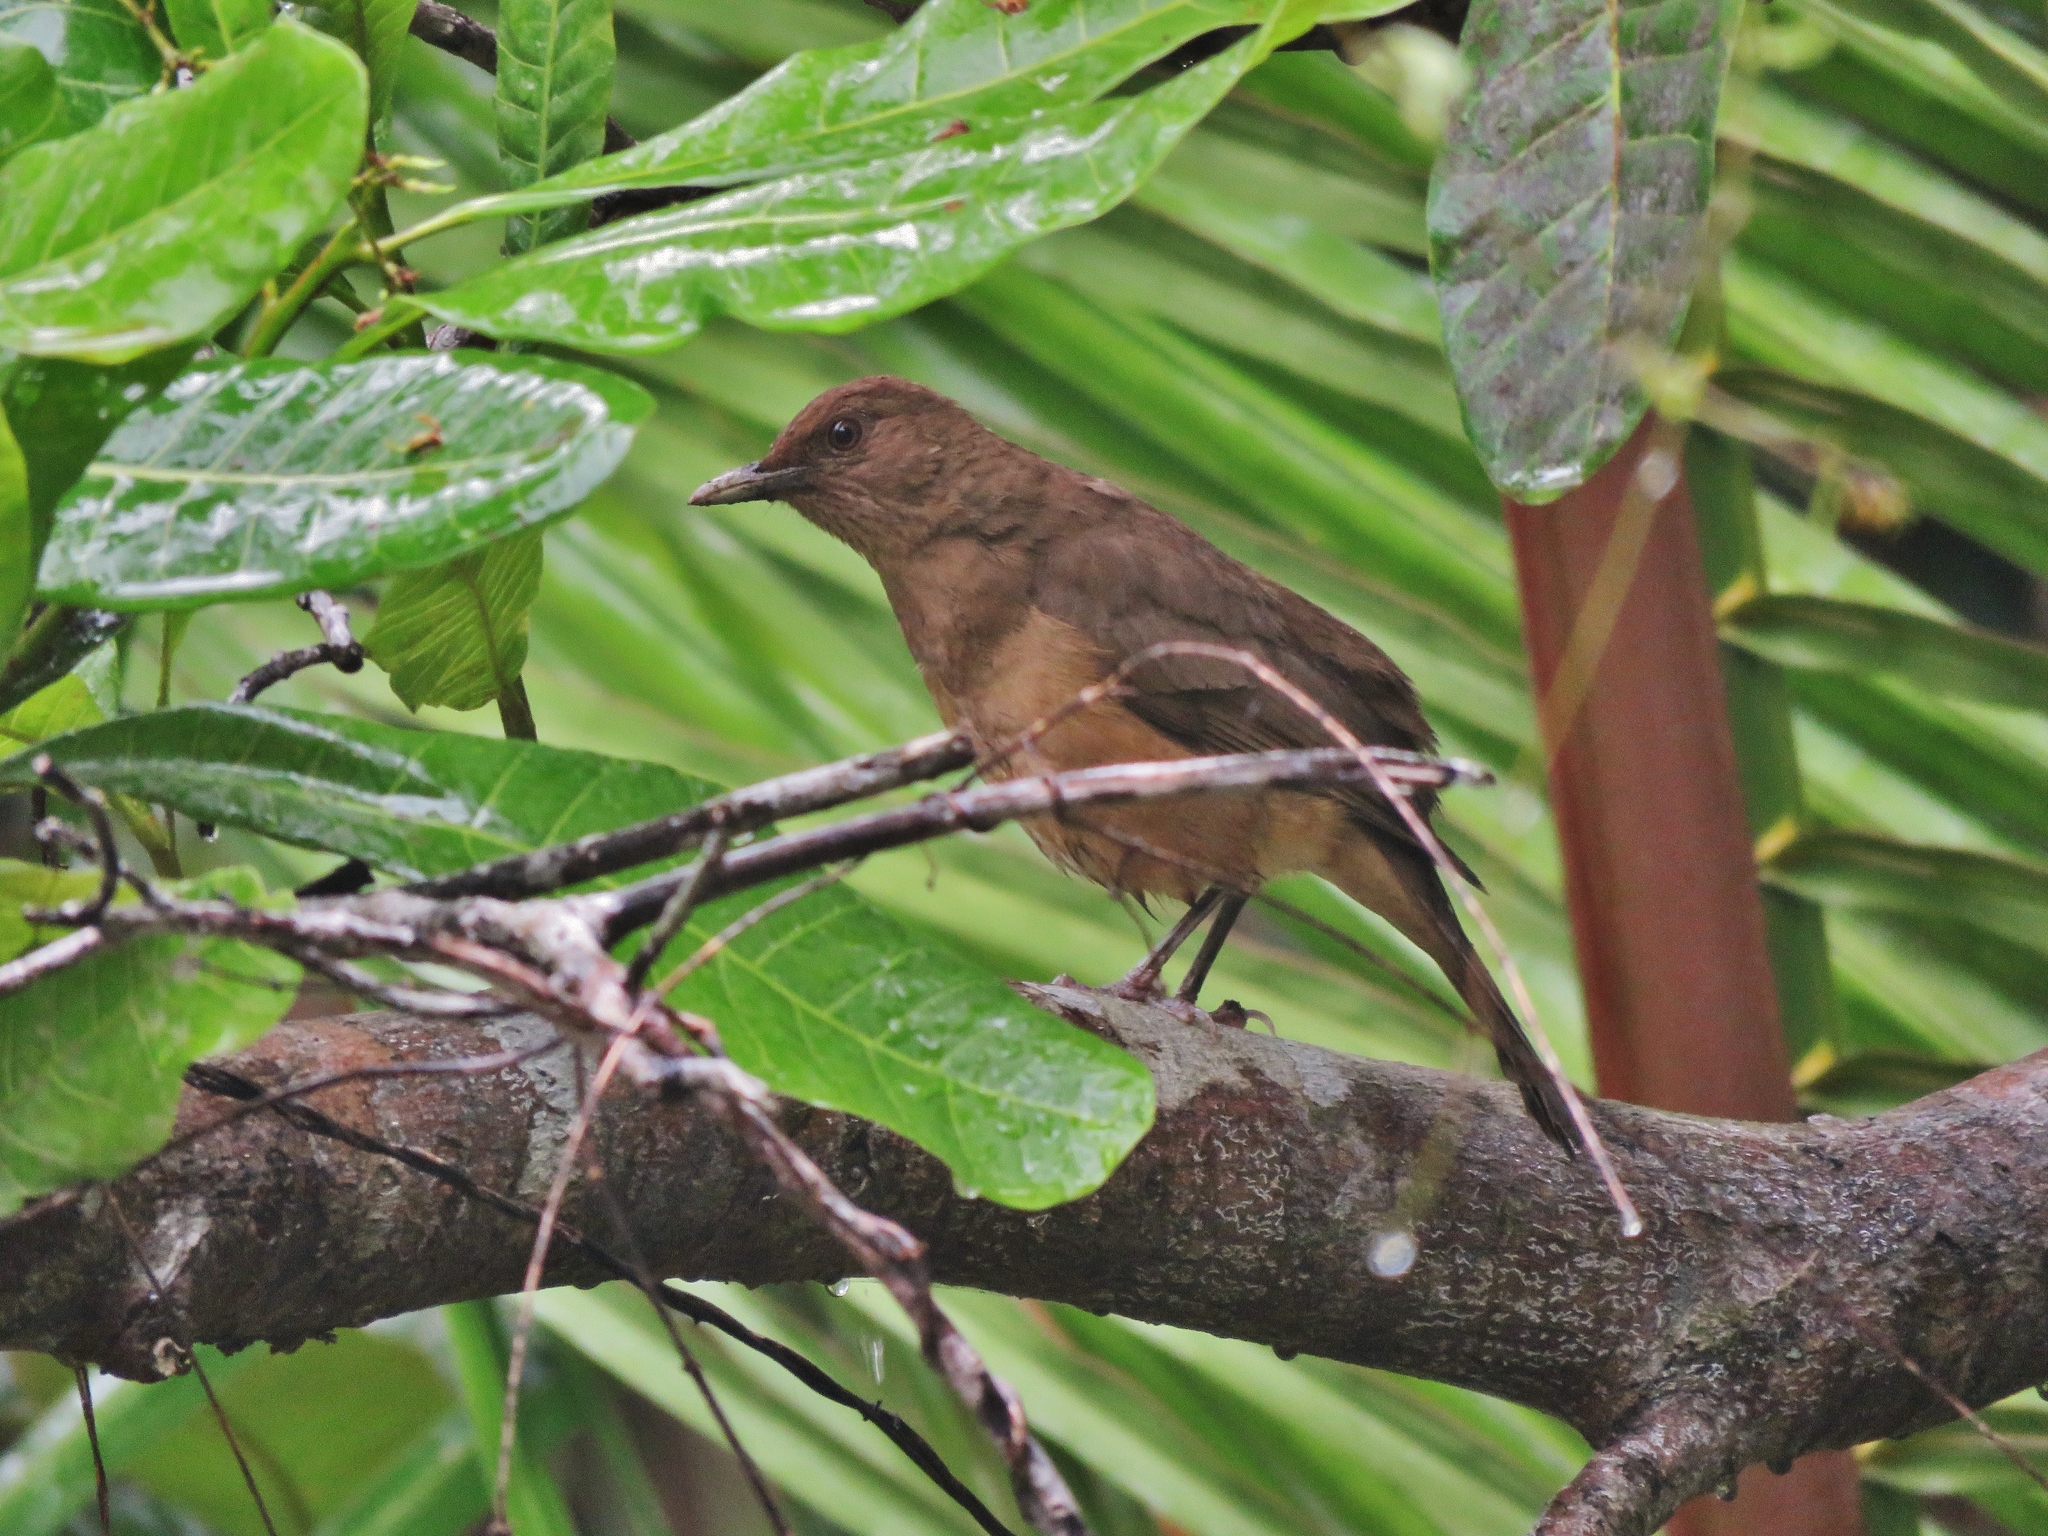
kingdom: Animalia
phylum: Chordata
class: Aves
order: Passeriformes
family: Turdidae
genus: Turdus
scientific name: Turdus grayi
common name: Clay-colored thrush
